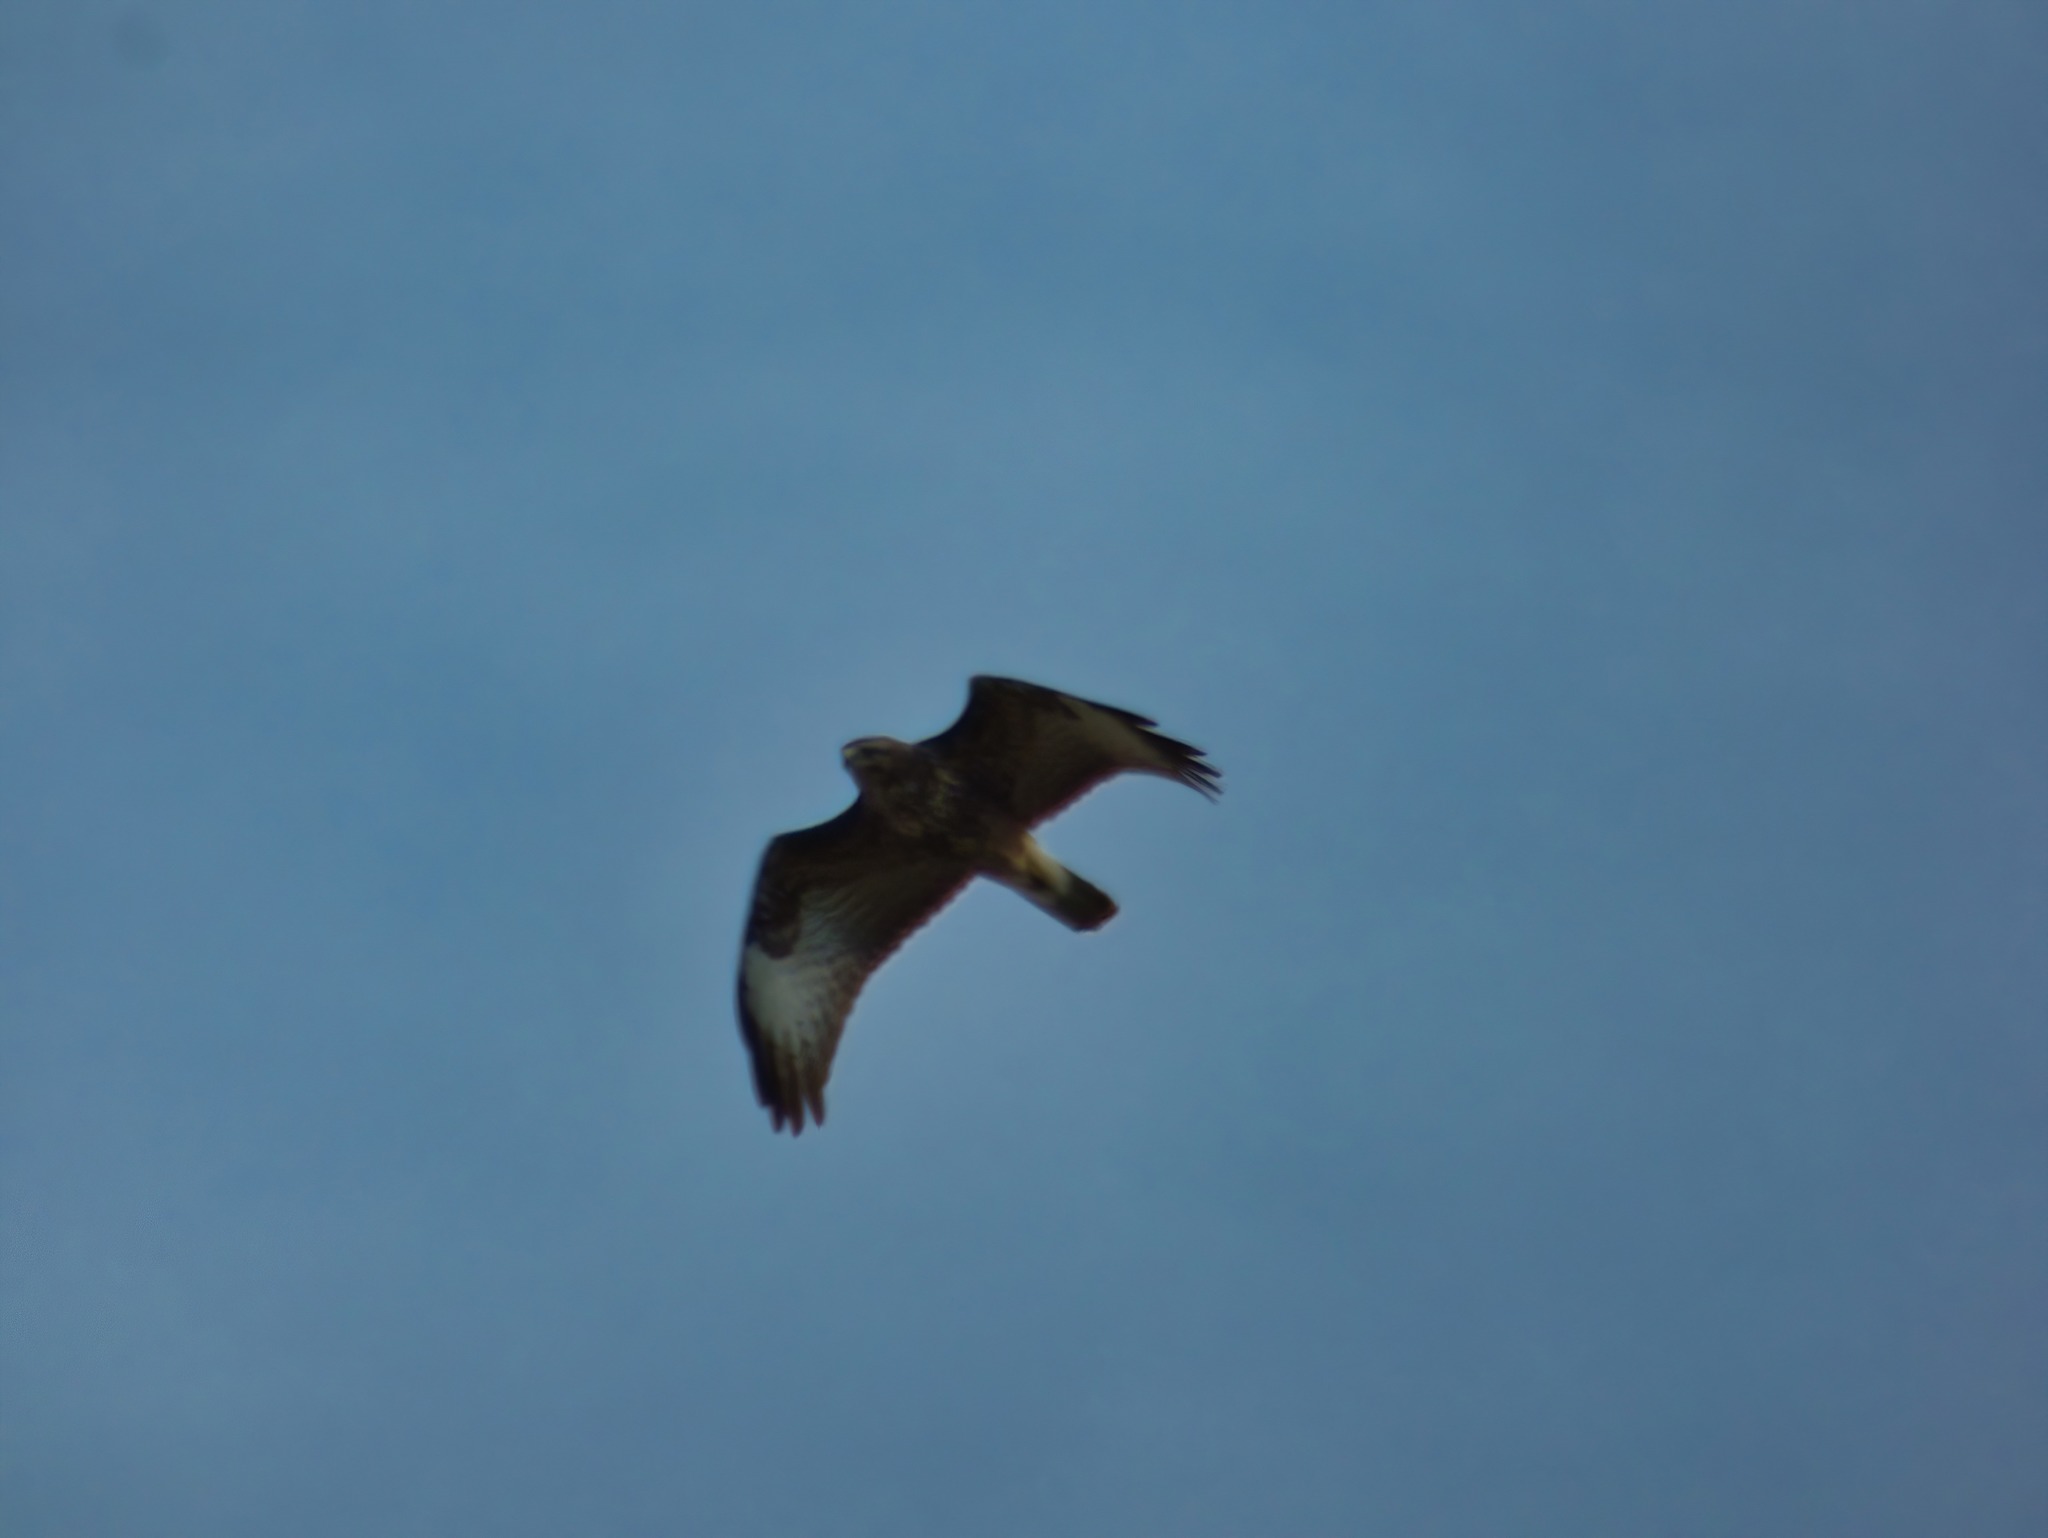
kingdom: Animalia
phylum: Chordata
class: Aves
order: Accipitriformes
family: Accipitridae
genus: Buteo
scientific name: Buteo buteo
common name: Common buzzard
